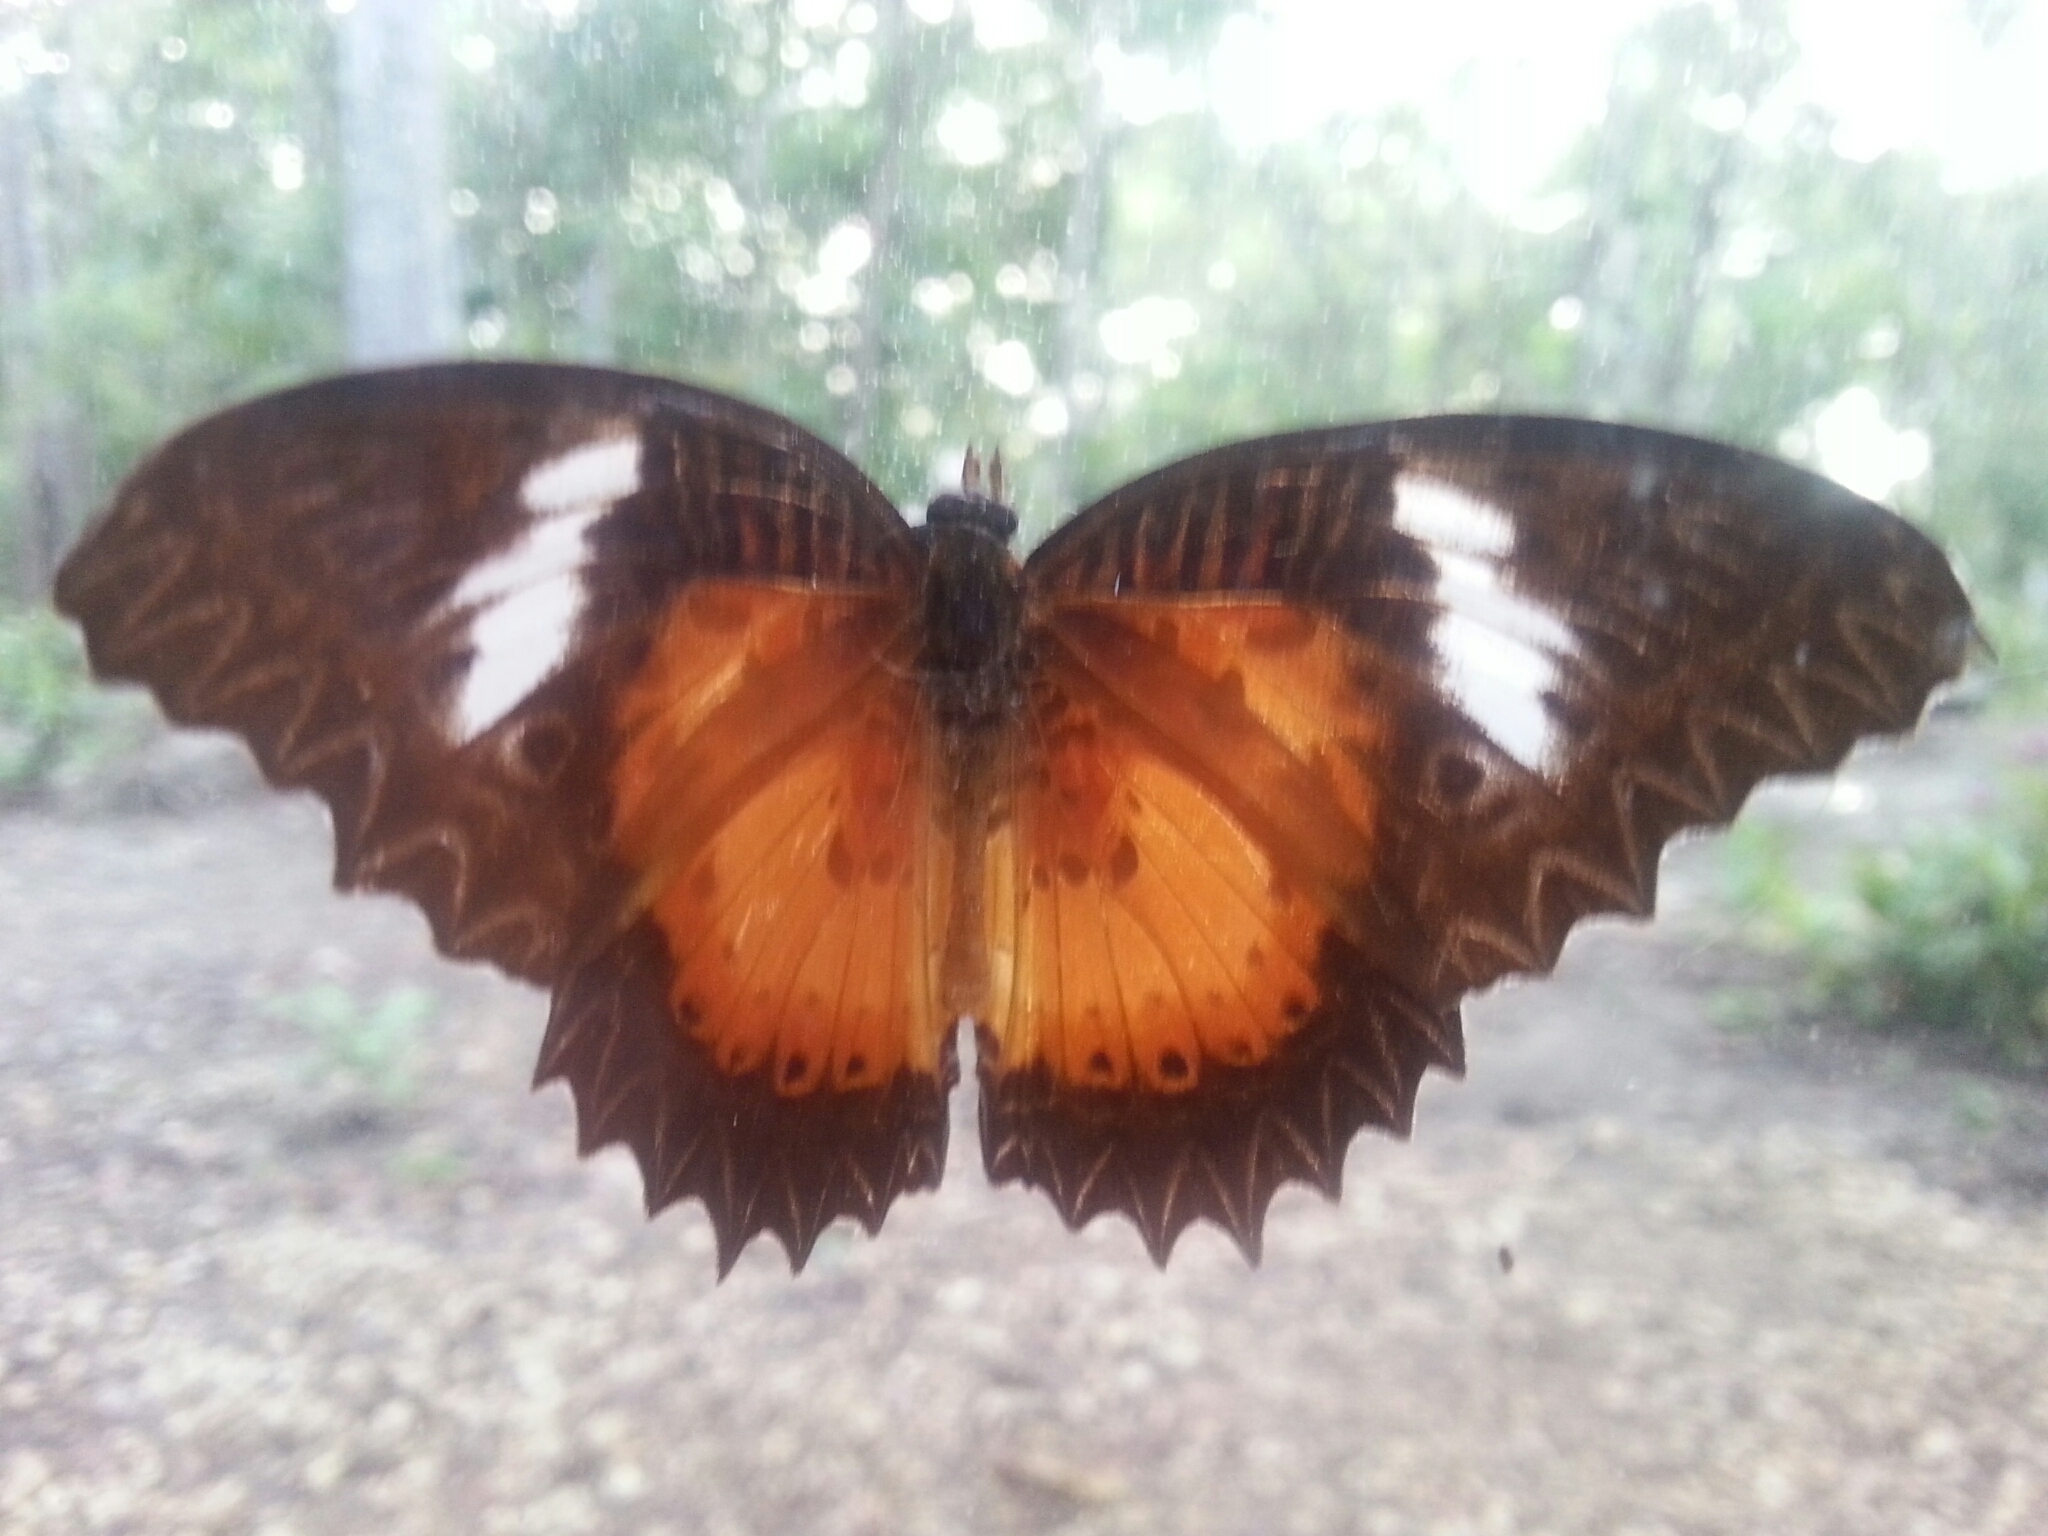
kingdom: Animalia
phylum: Arthropoda
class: Insecta
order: Lepidoptera
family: Nymphalidae
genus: Cethosia
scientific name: Cethosia luzonica
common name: Luzon lacewing
